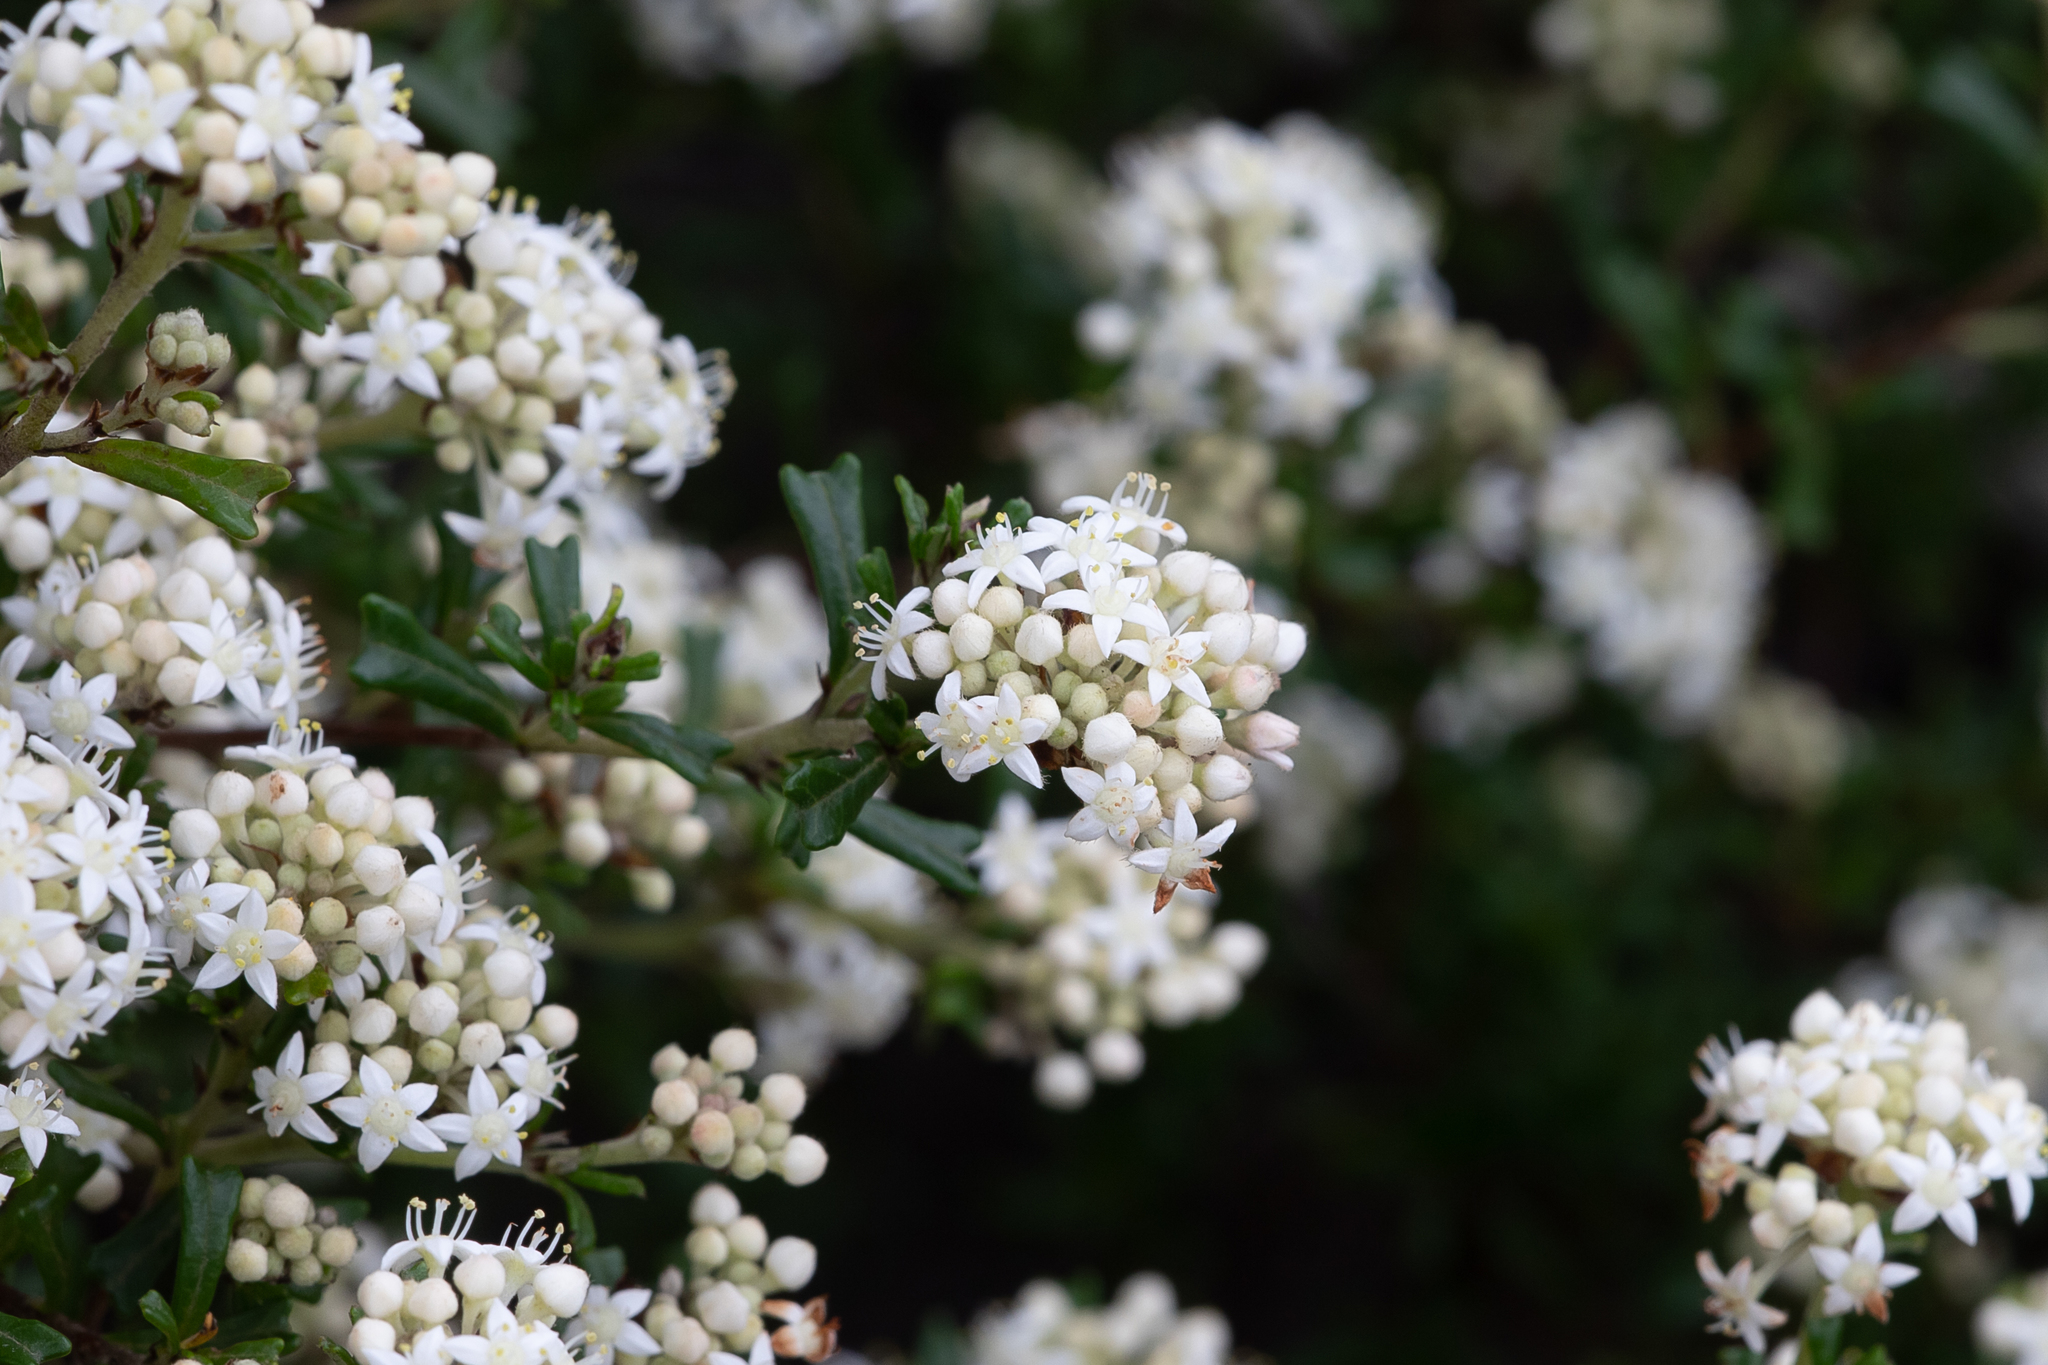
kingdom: Plantae
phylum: Tracheophyta
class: Magnoliopsida
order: Rosales
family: Rhamnaceae
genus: Pomaderris
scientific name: Pomaderris obcordata
